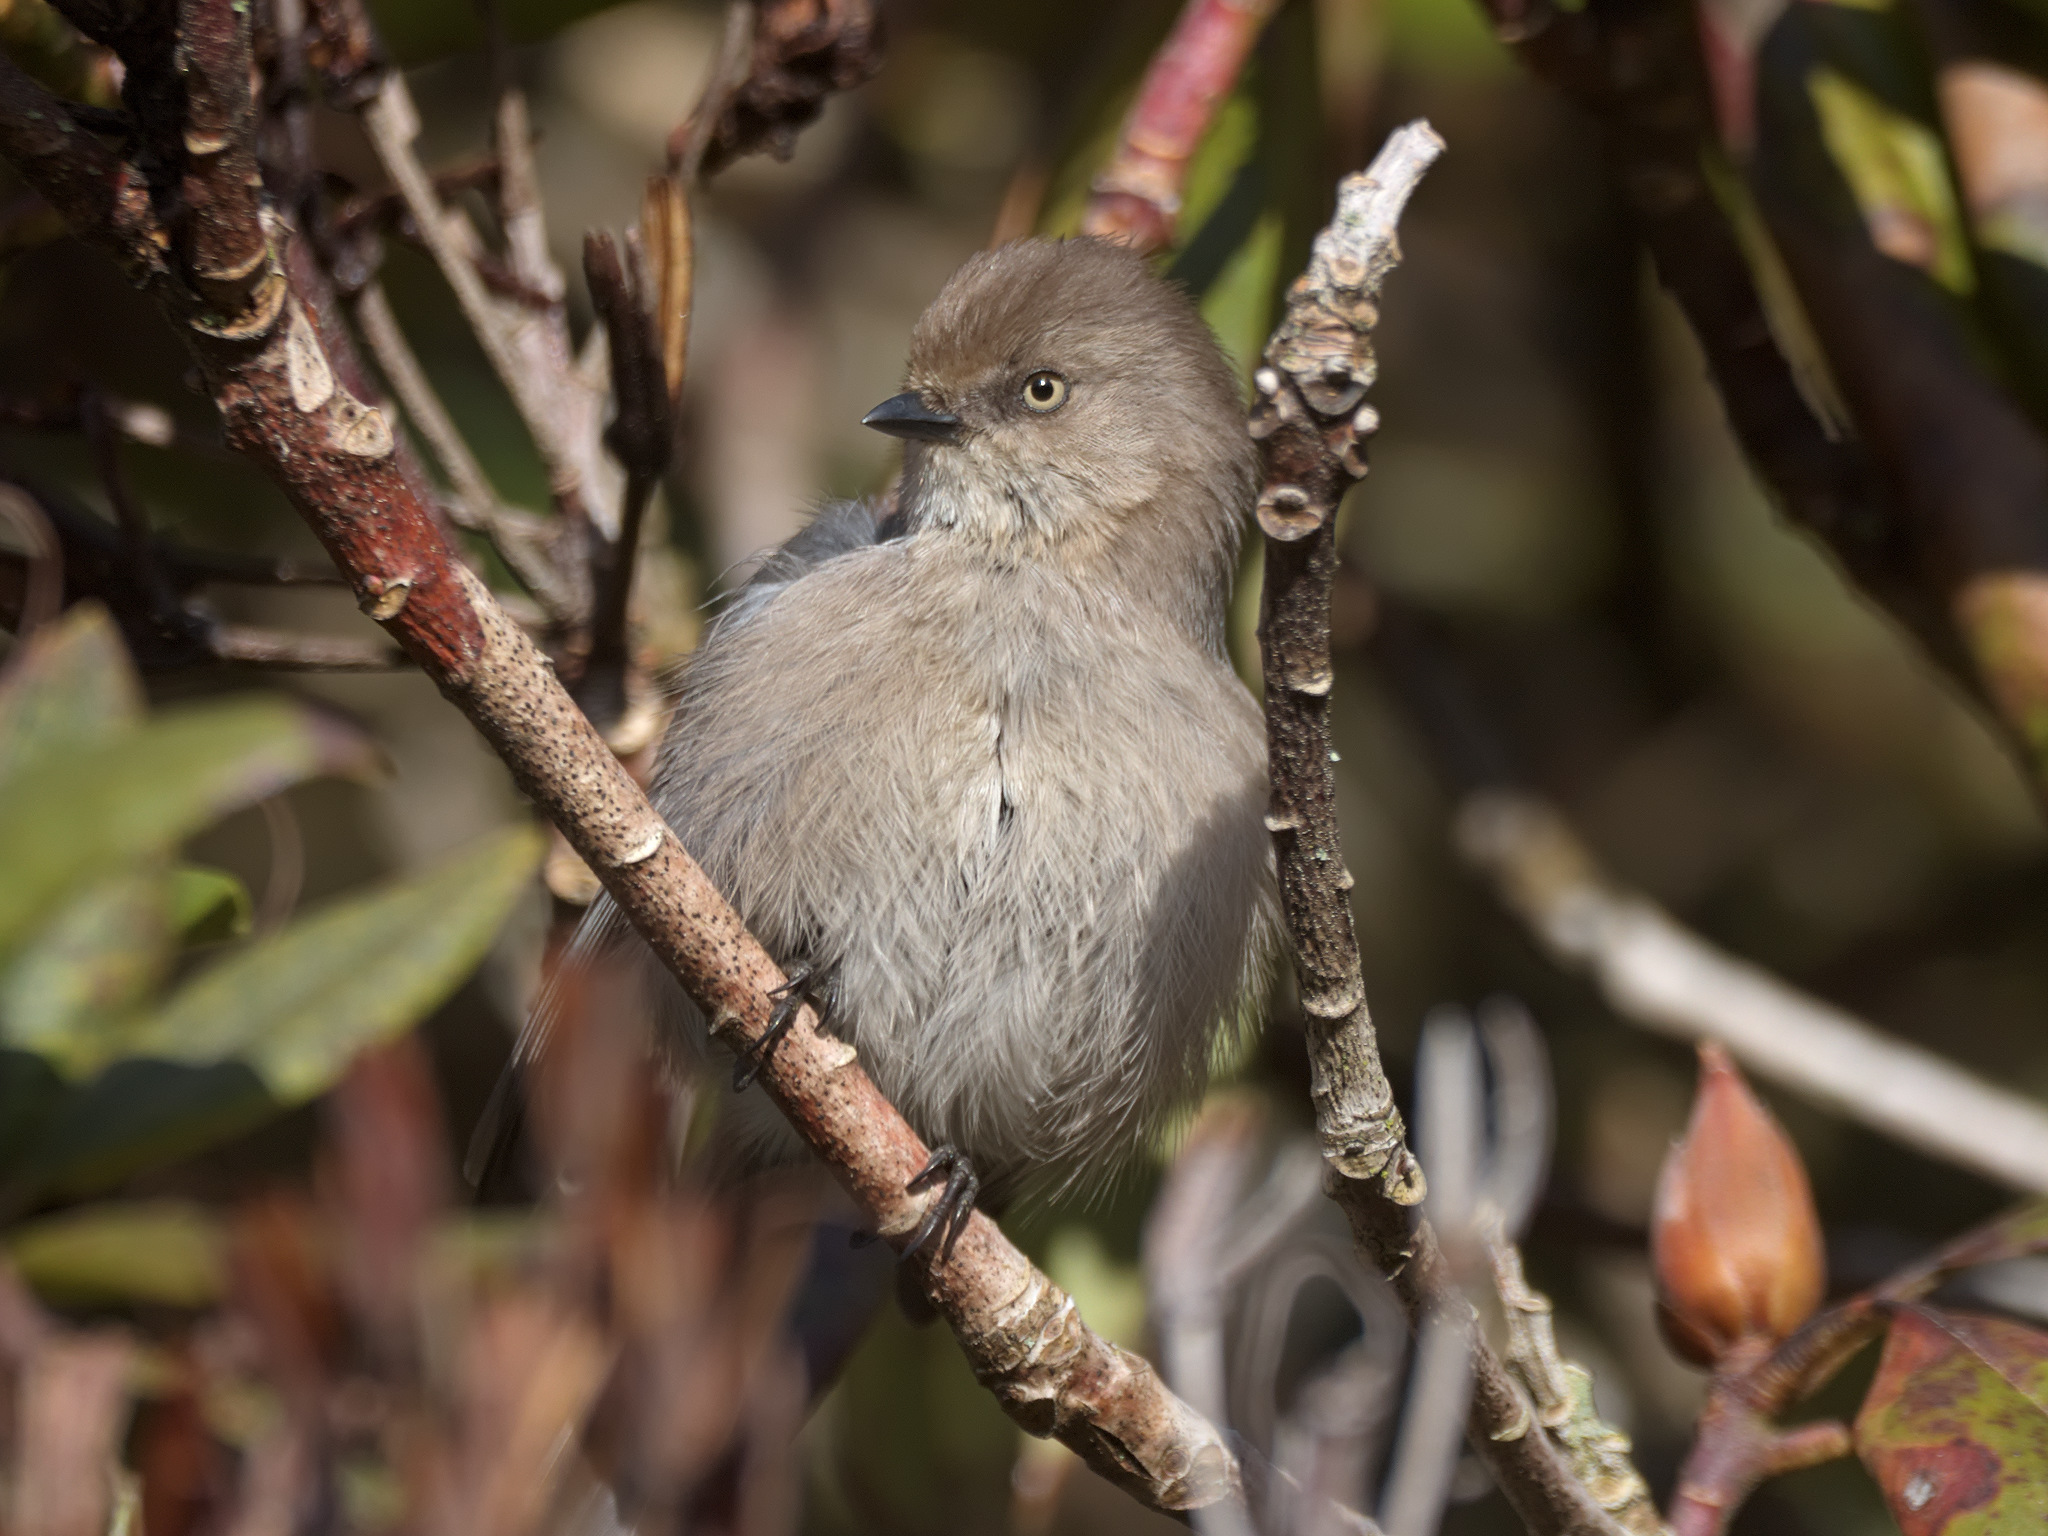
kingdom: Animalia
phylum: Chordata
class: Aves
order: Passeriformes
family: Aegithalidae
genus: Psaltriparus
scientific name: Psaltriparus minimus
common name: American bushtit
